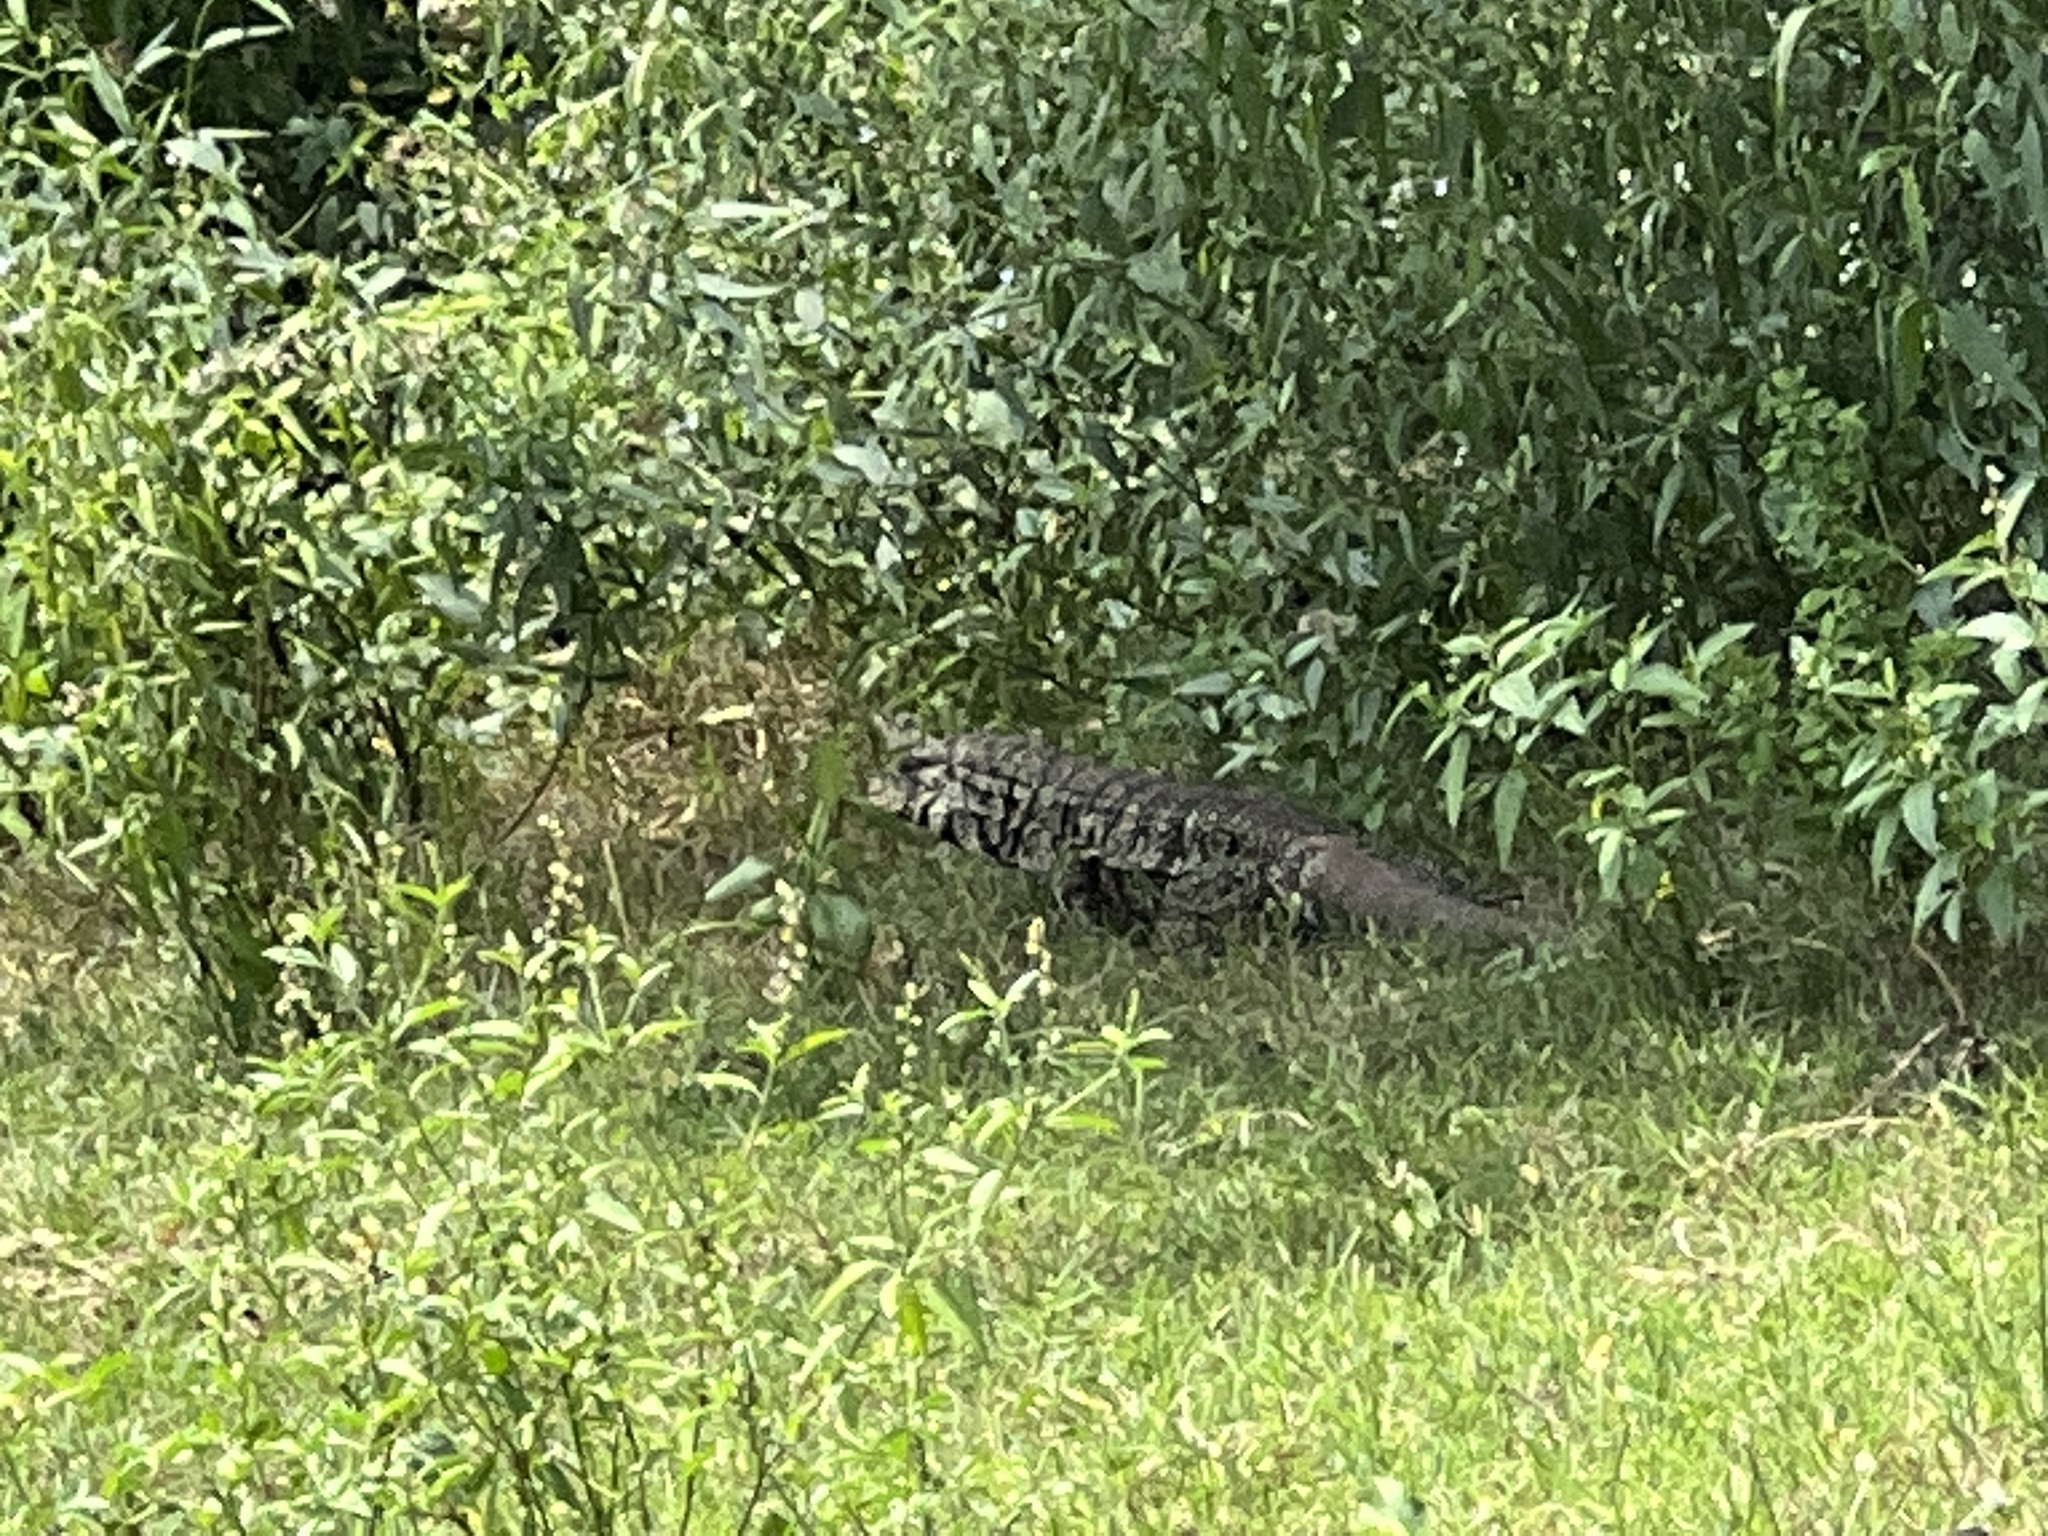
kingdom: Animalia
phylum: Chordata
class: Squamata
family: Teiidae
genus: Salvator
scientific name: Salvator merianae
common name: Argentine black and white tegu
